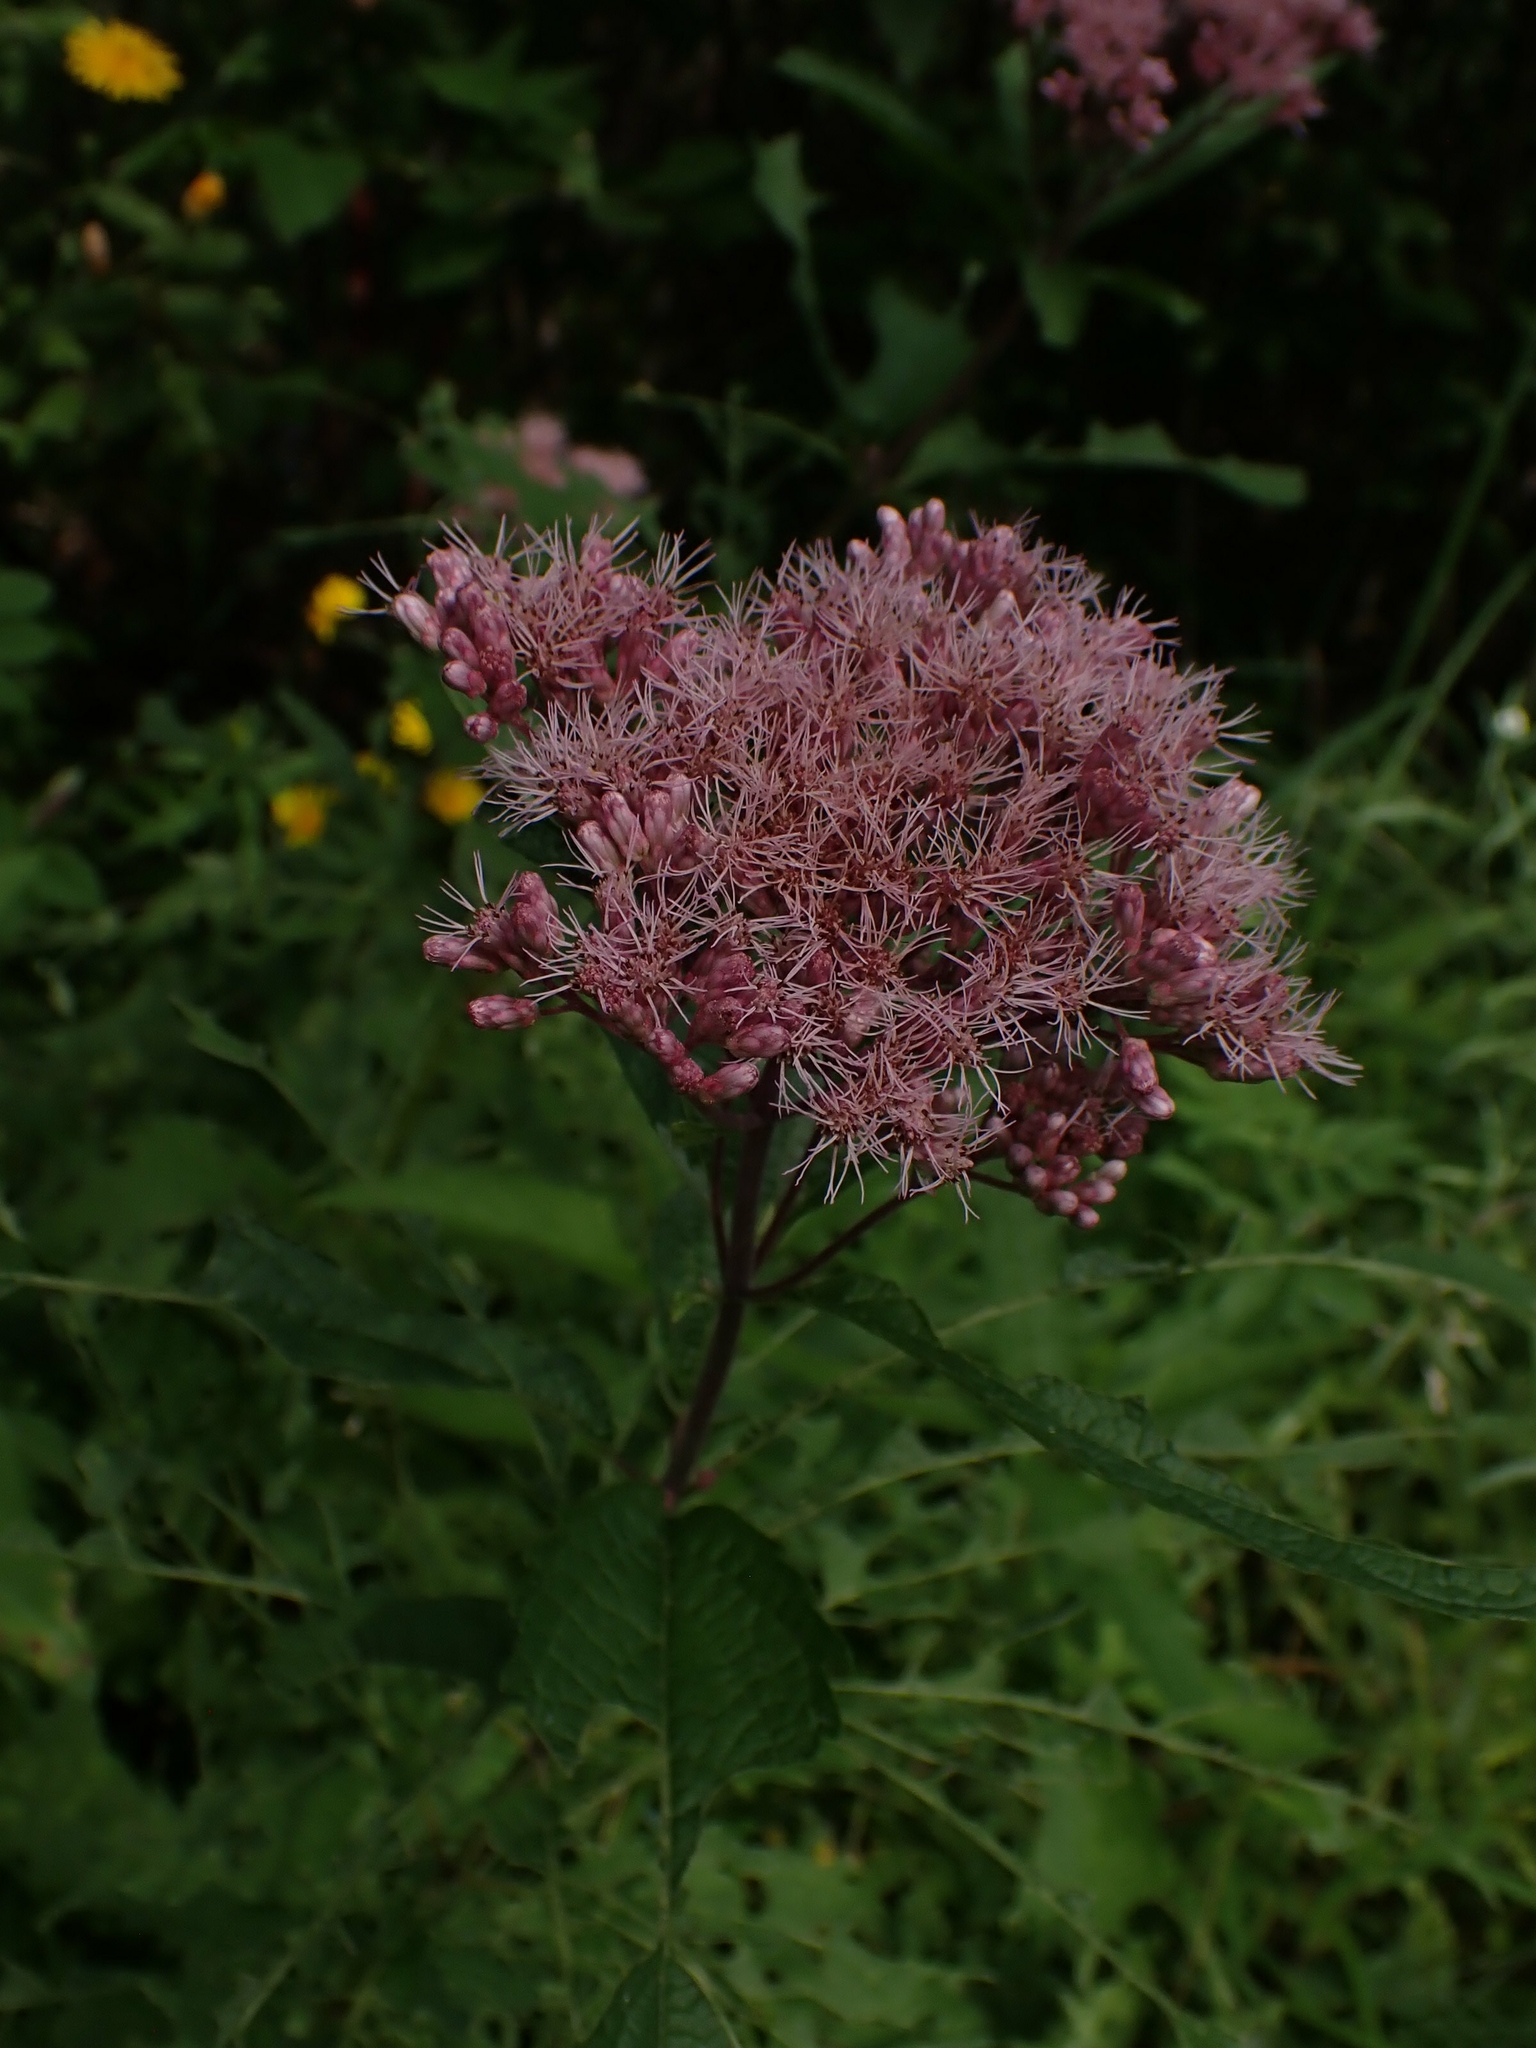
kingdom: Plantae
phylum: Tracheophyta
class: Magnoliopsida
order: Asterales
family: Asteraceae
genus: Eutrochium
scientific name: Eutrochium maculatum
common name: Spotted joe pye weed
